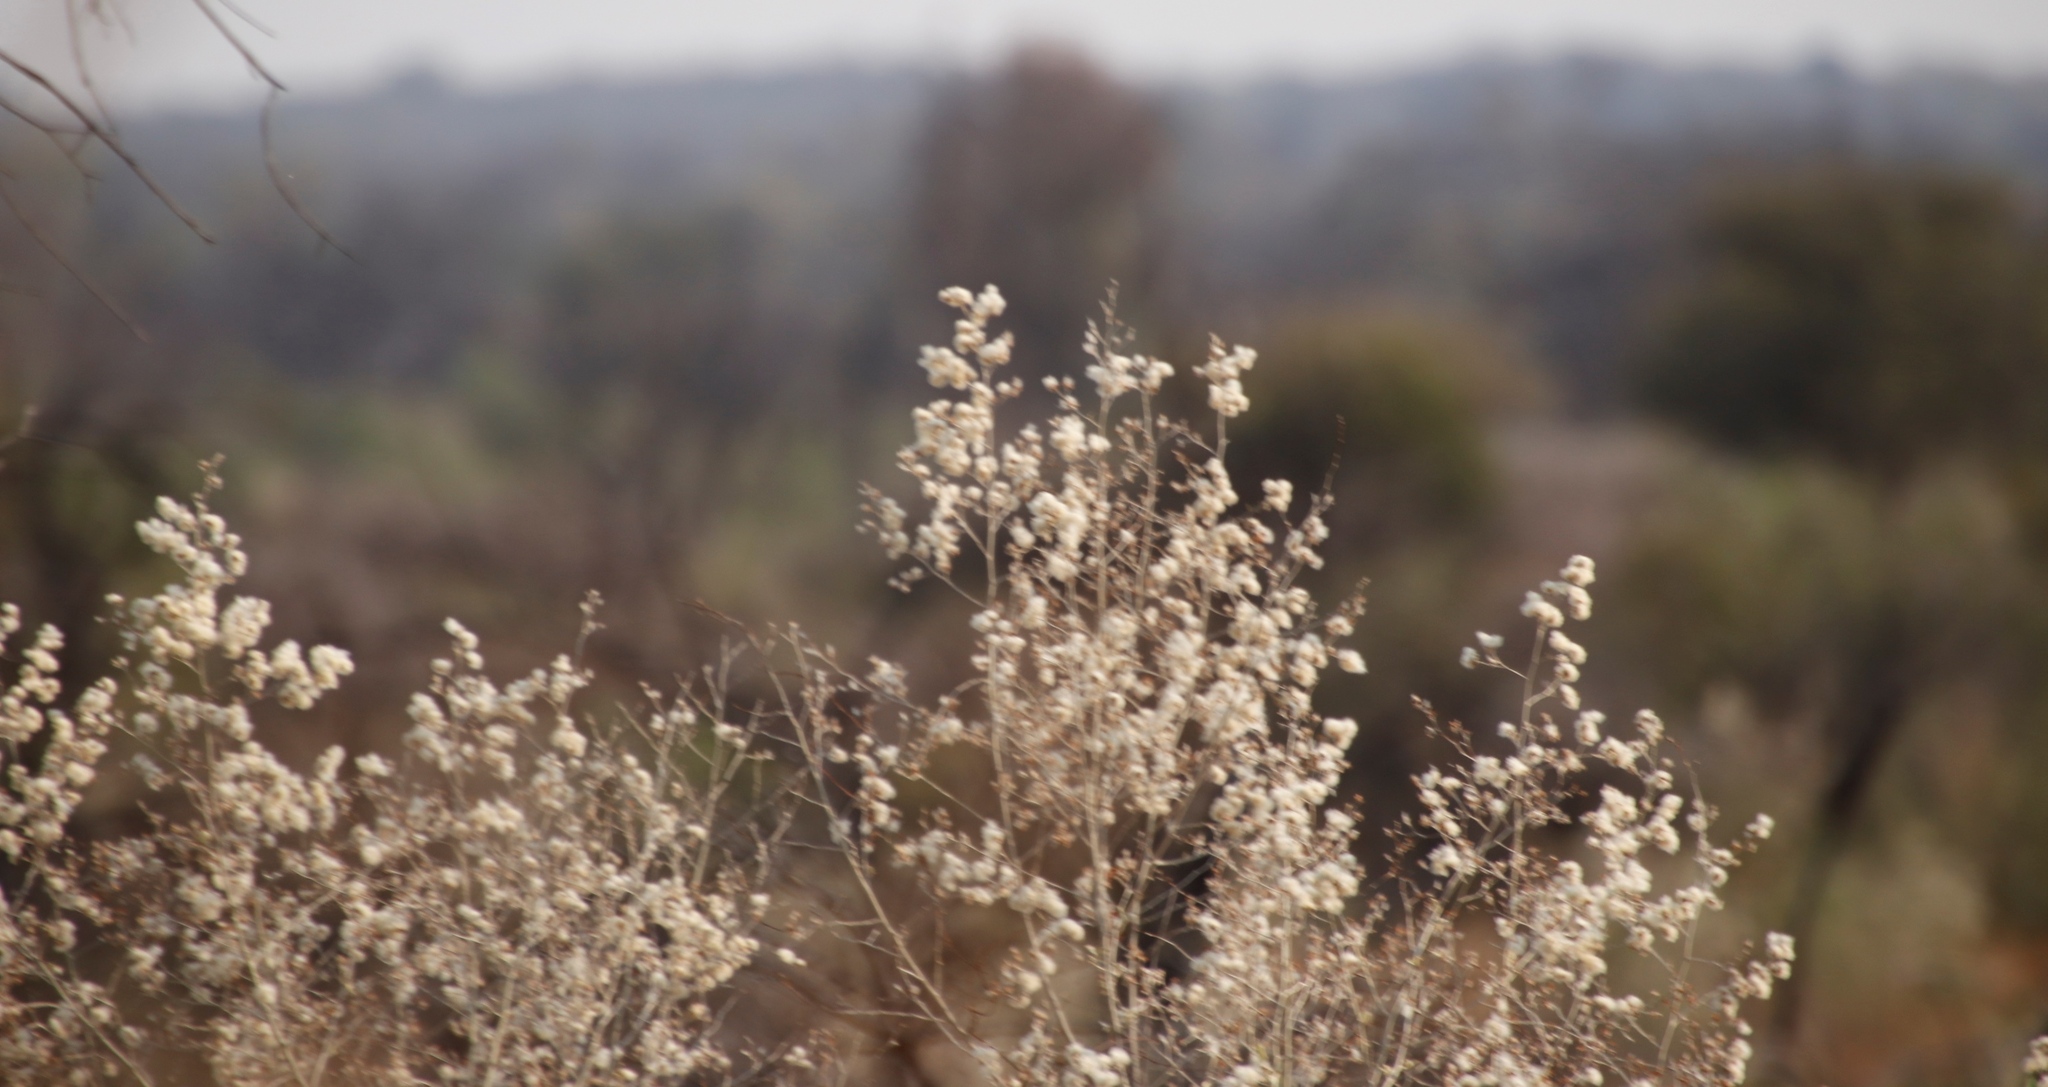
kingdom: Plantae
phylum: Tracheophyta
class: Magnoliopsida
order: Asterales
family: Asteraceae
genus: Tarchonanthus
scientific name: Tarchonanthus parvicapitulatus
